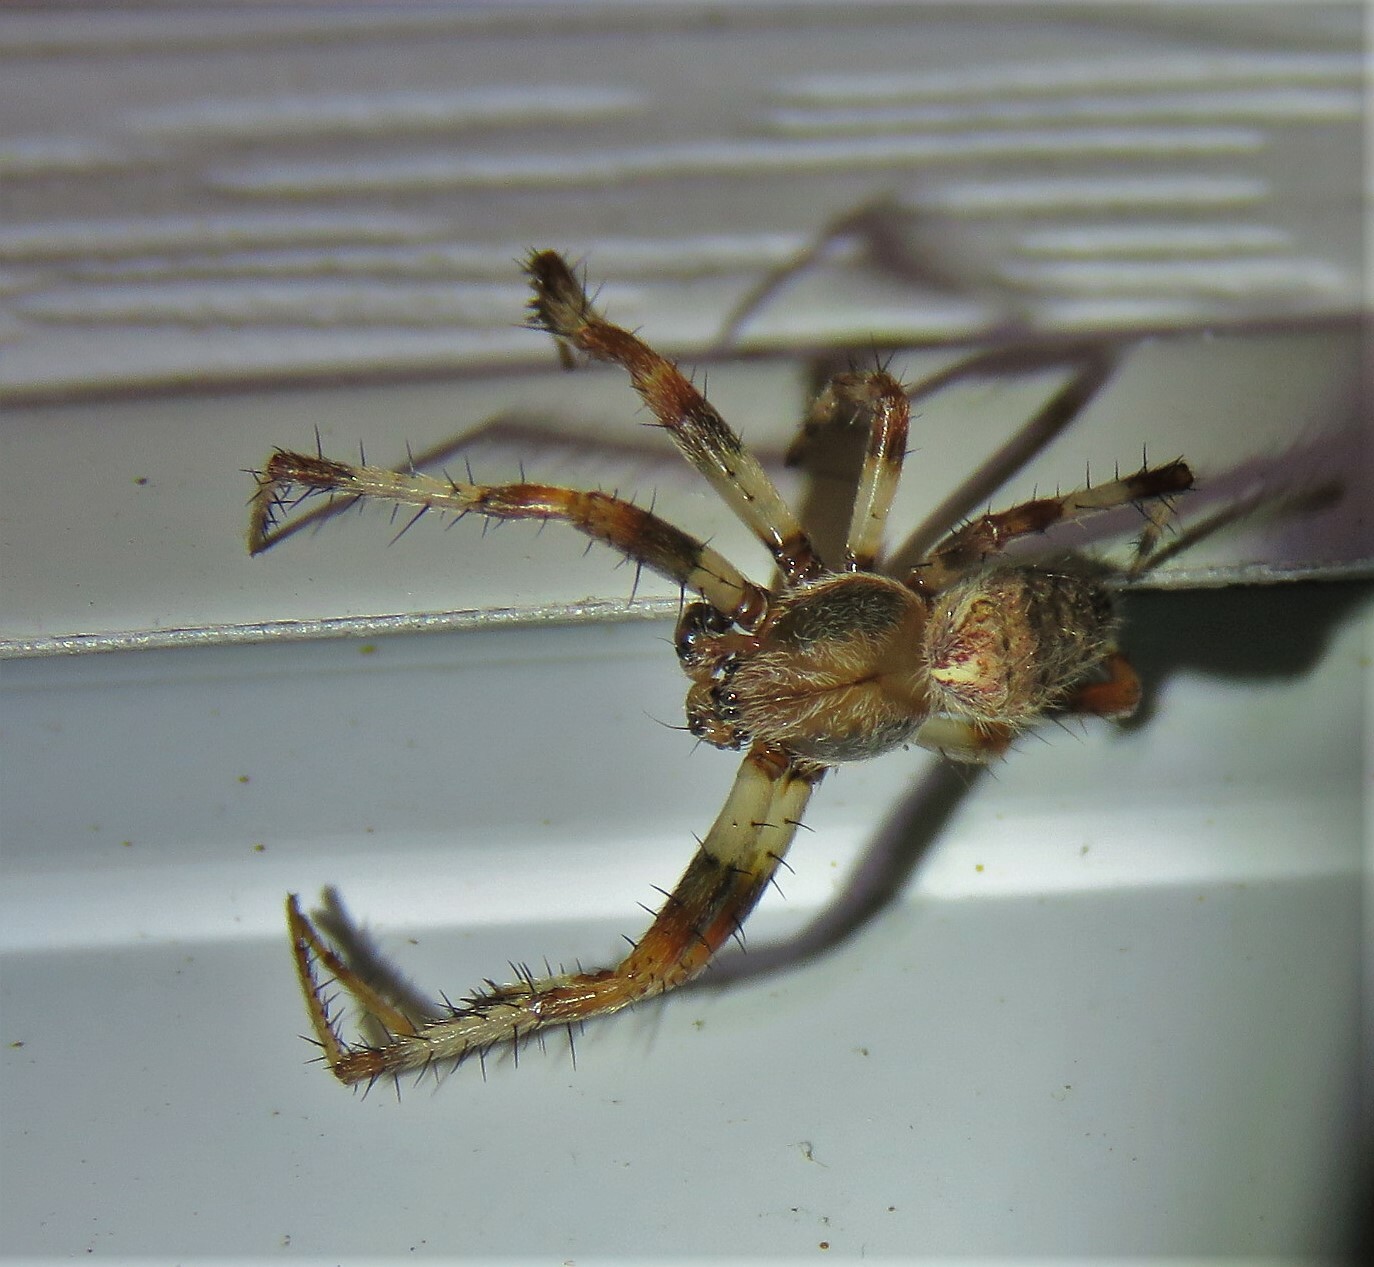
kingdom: Animalia
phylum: Arthropoda
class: Arachnida
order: Araneae
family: Araneidae
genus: Araneus
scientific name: Araneus marmoreus
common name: Marbled orbweaver
